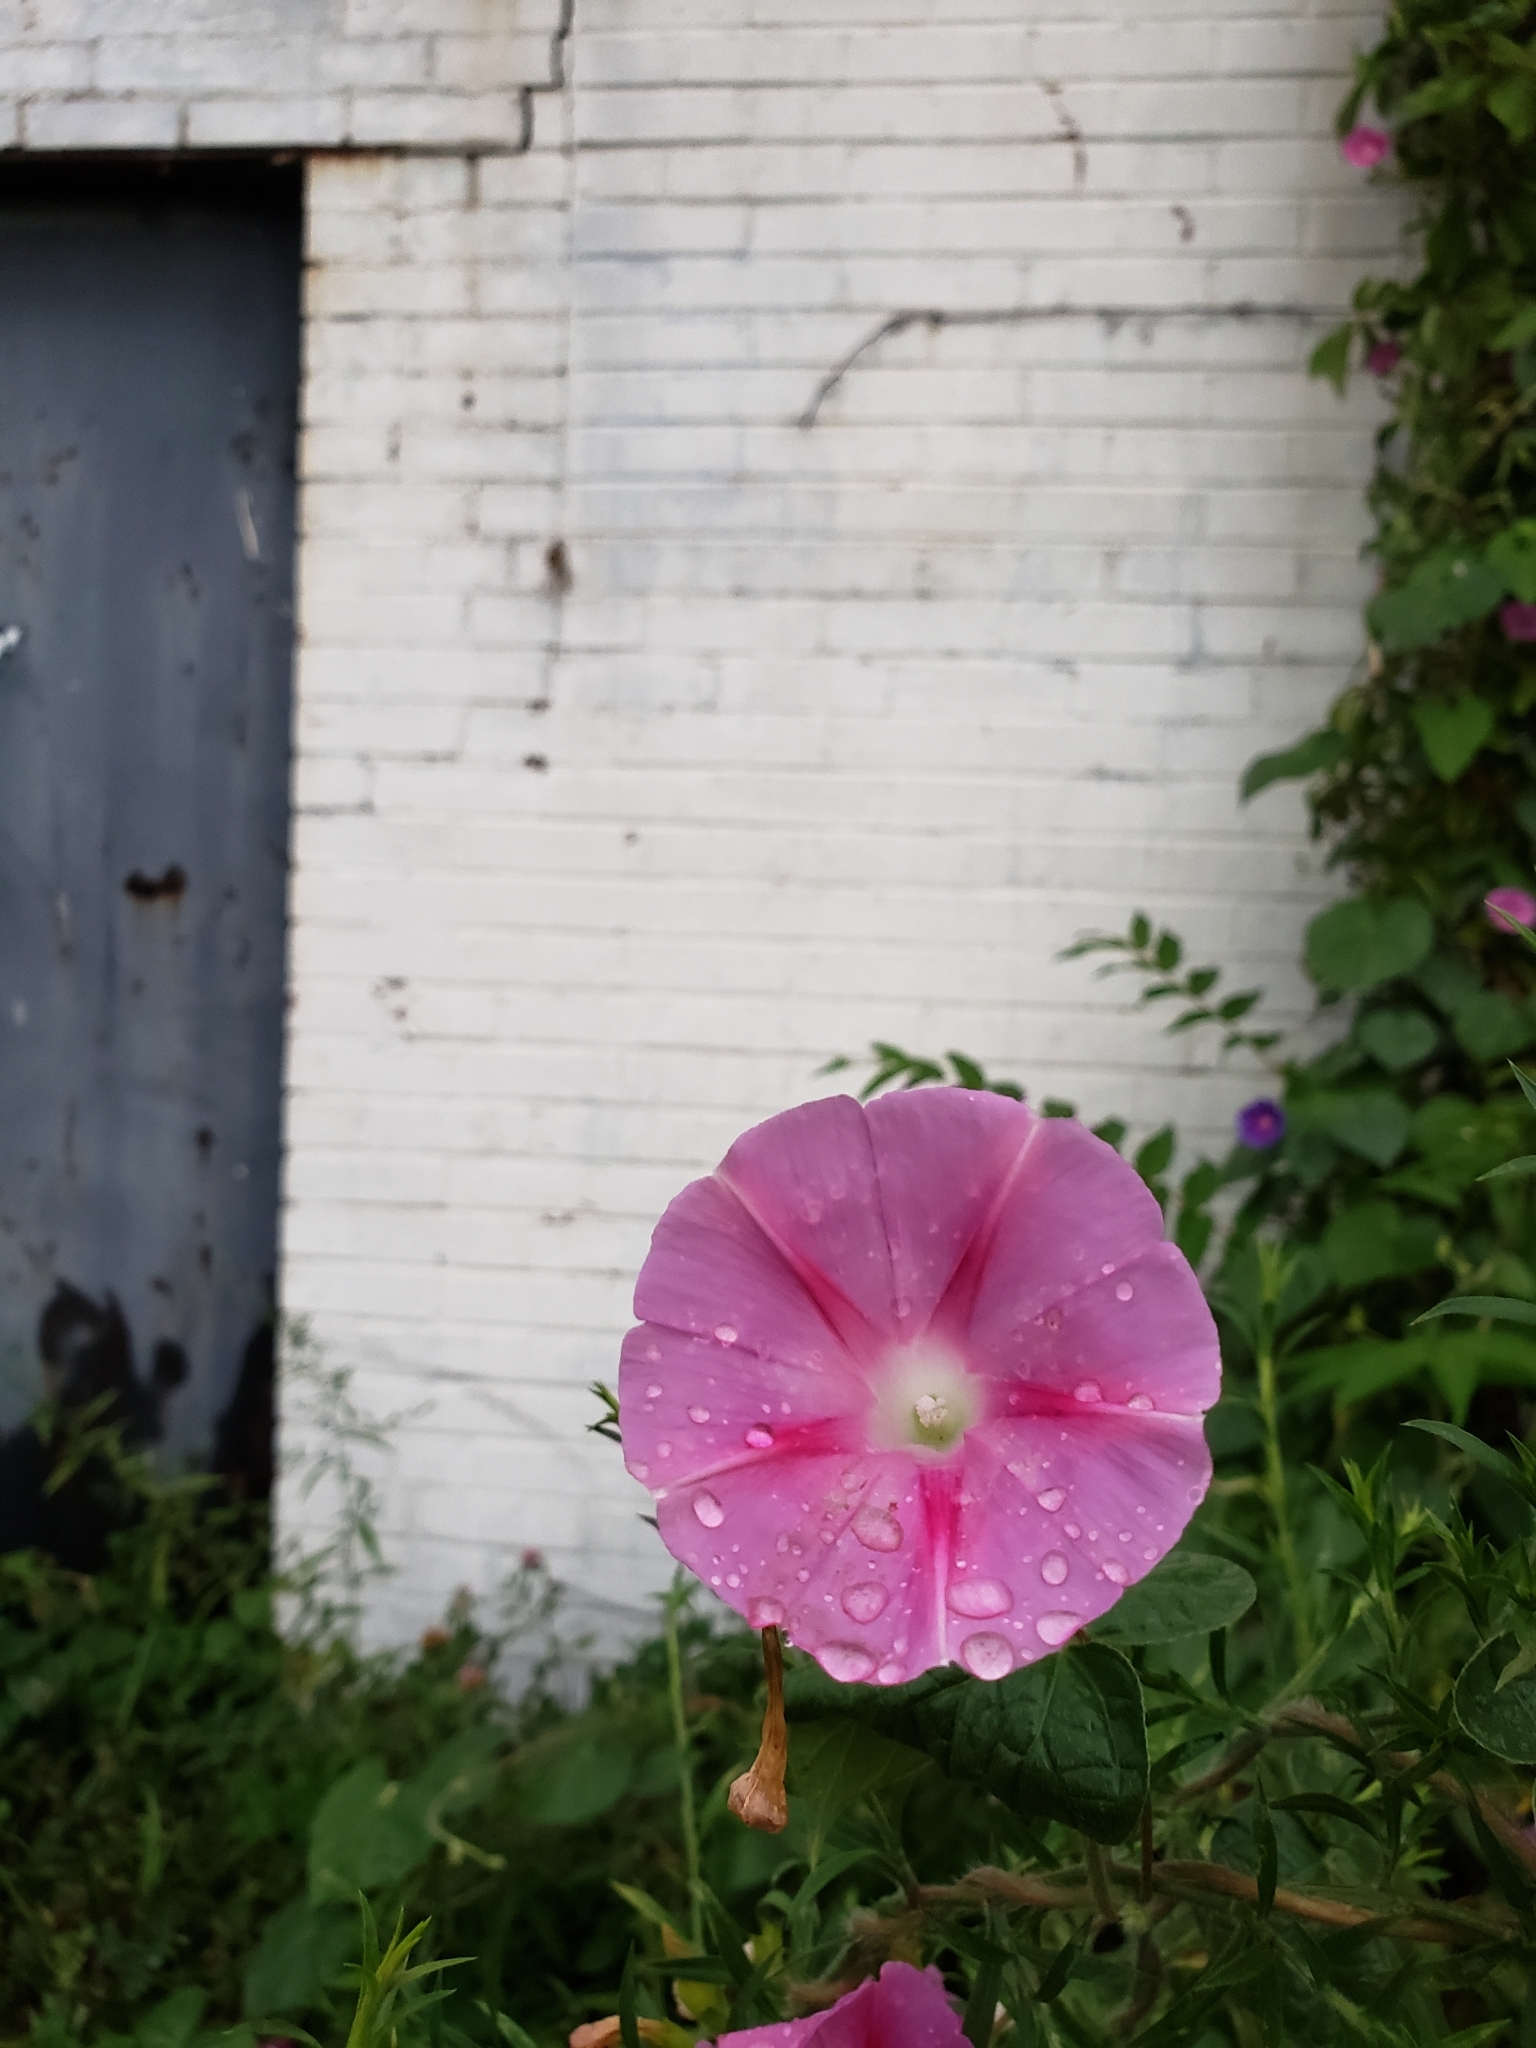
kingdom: Plantae
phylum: Tracheophyta
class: Magnoliopsida
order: Solanales
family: Convolvulaceae
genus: Ipomoea
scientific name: Ipomoea purpurea
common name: Common morning-glory
